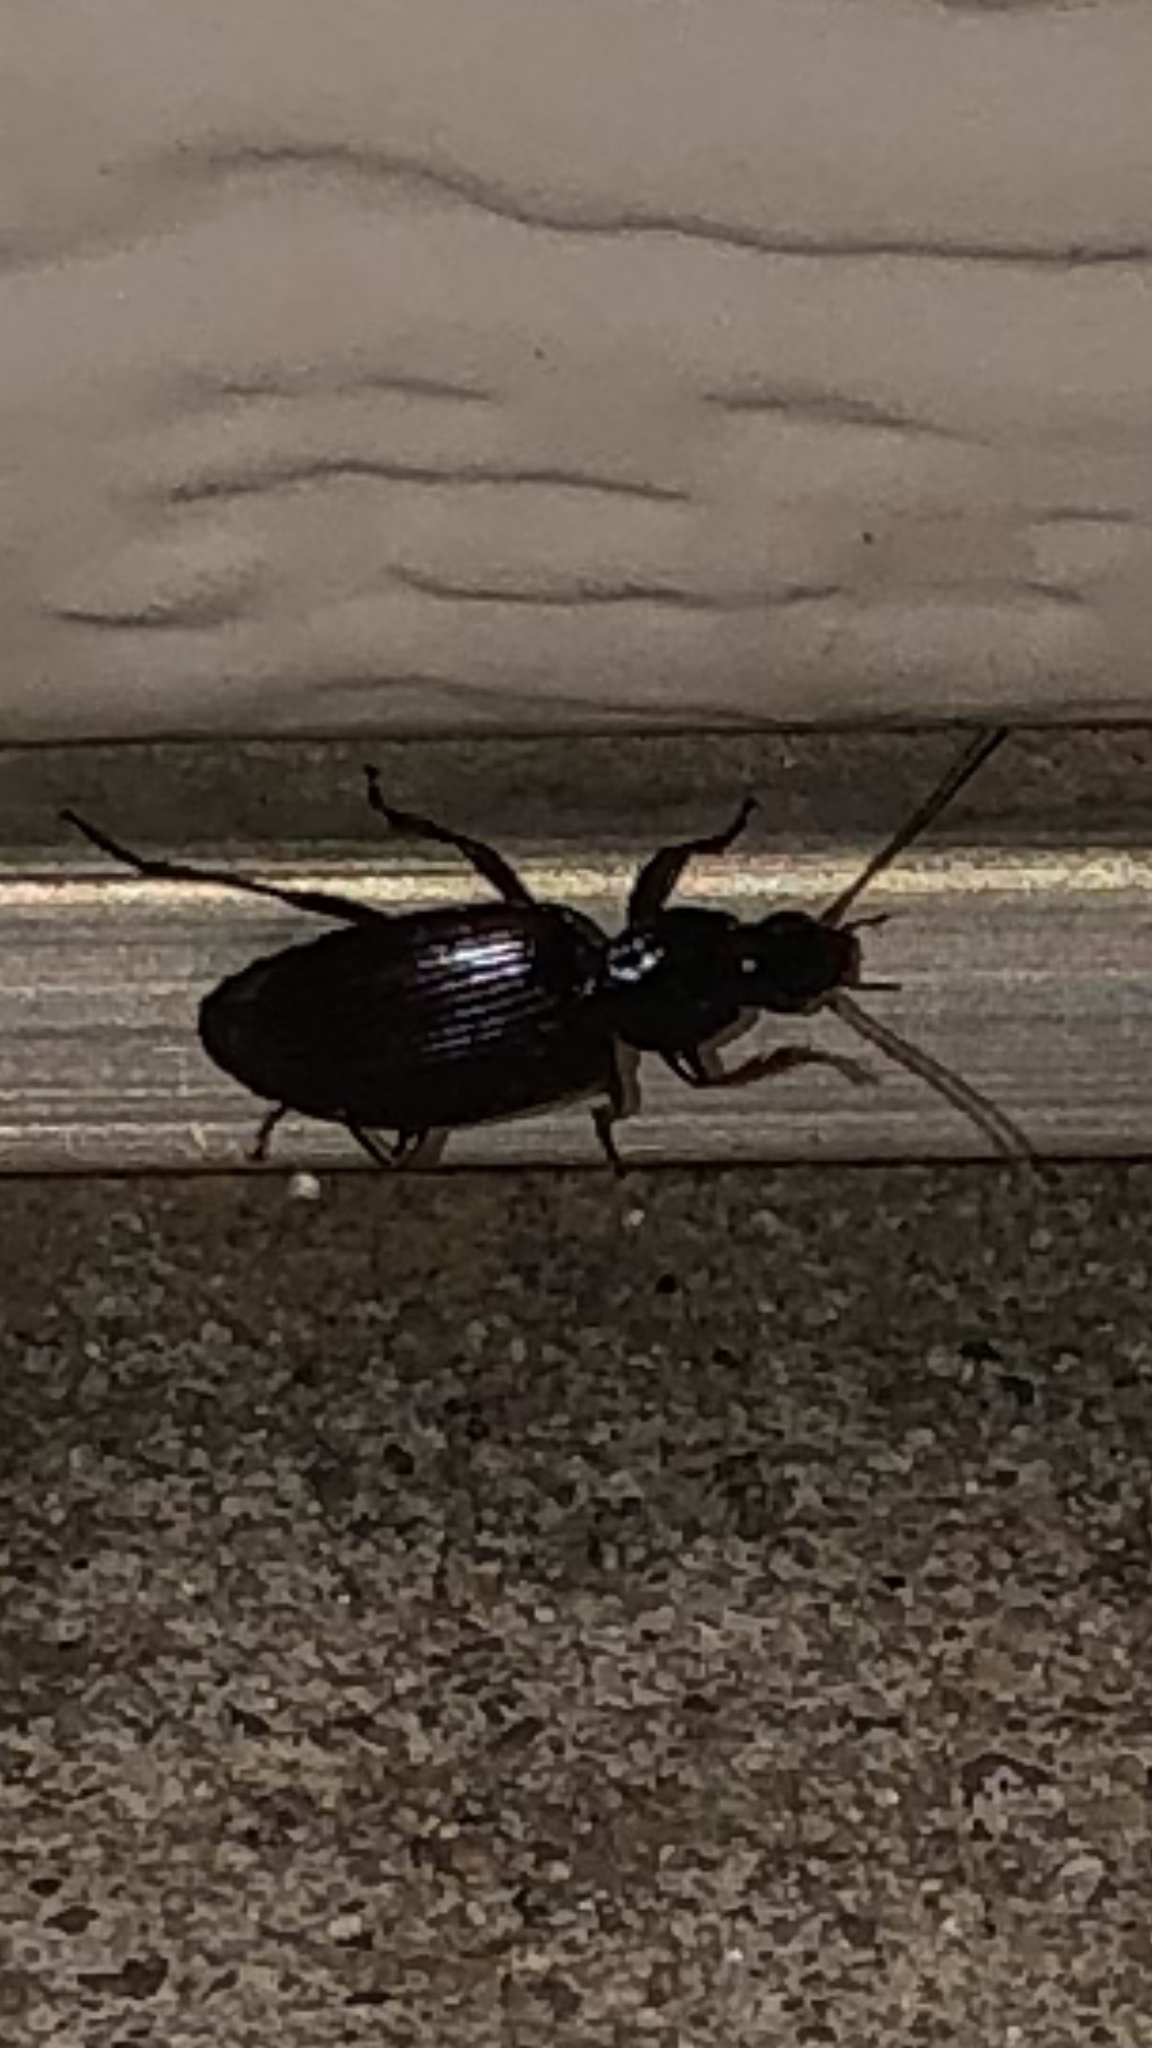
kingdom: Animalia
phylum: Arthropoda
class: Insecta
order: Coleoptera
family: Carabidae
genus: Agonum
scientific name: Agonum punctiforme
